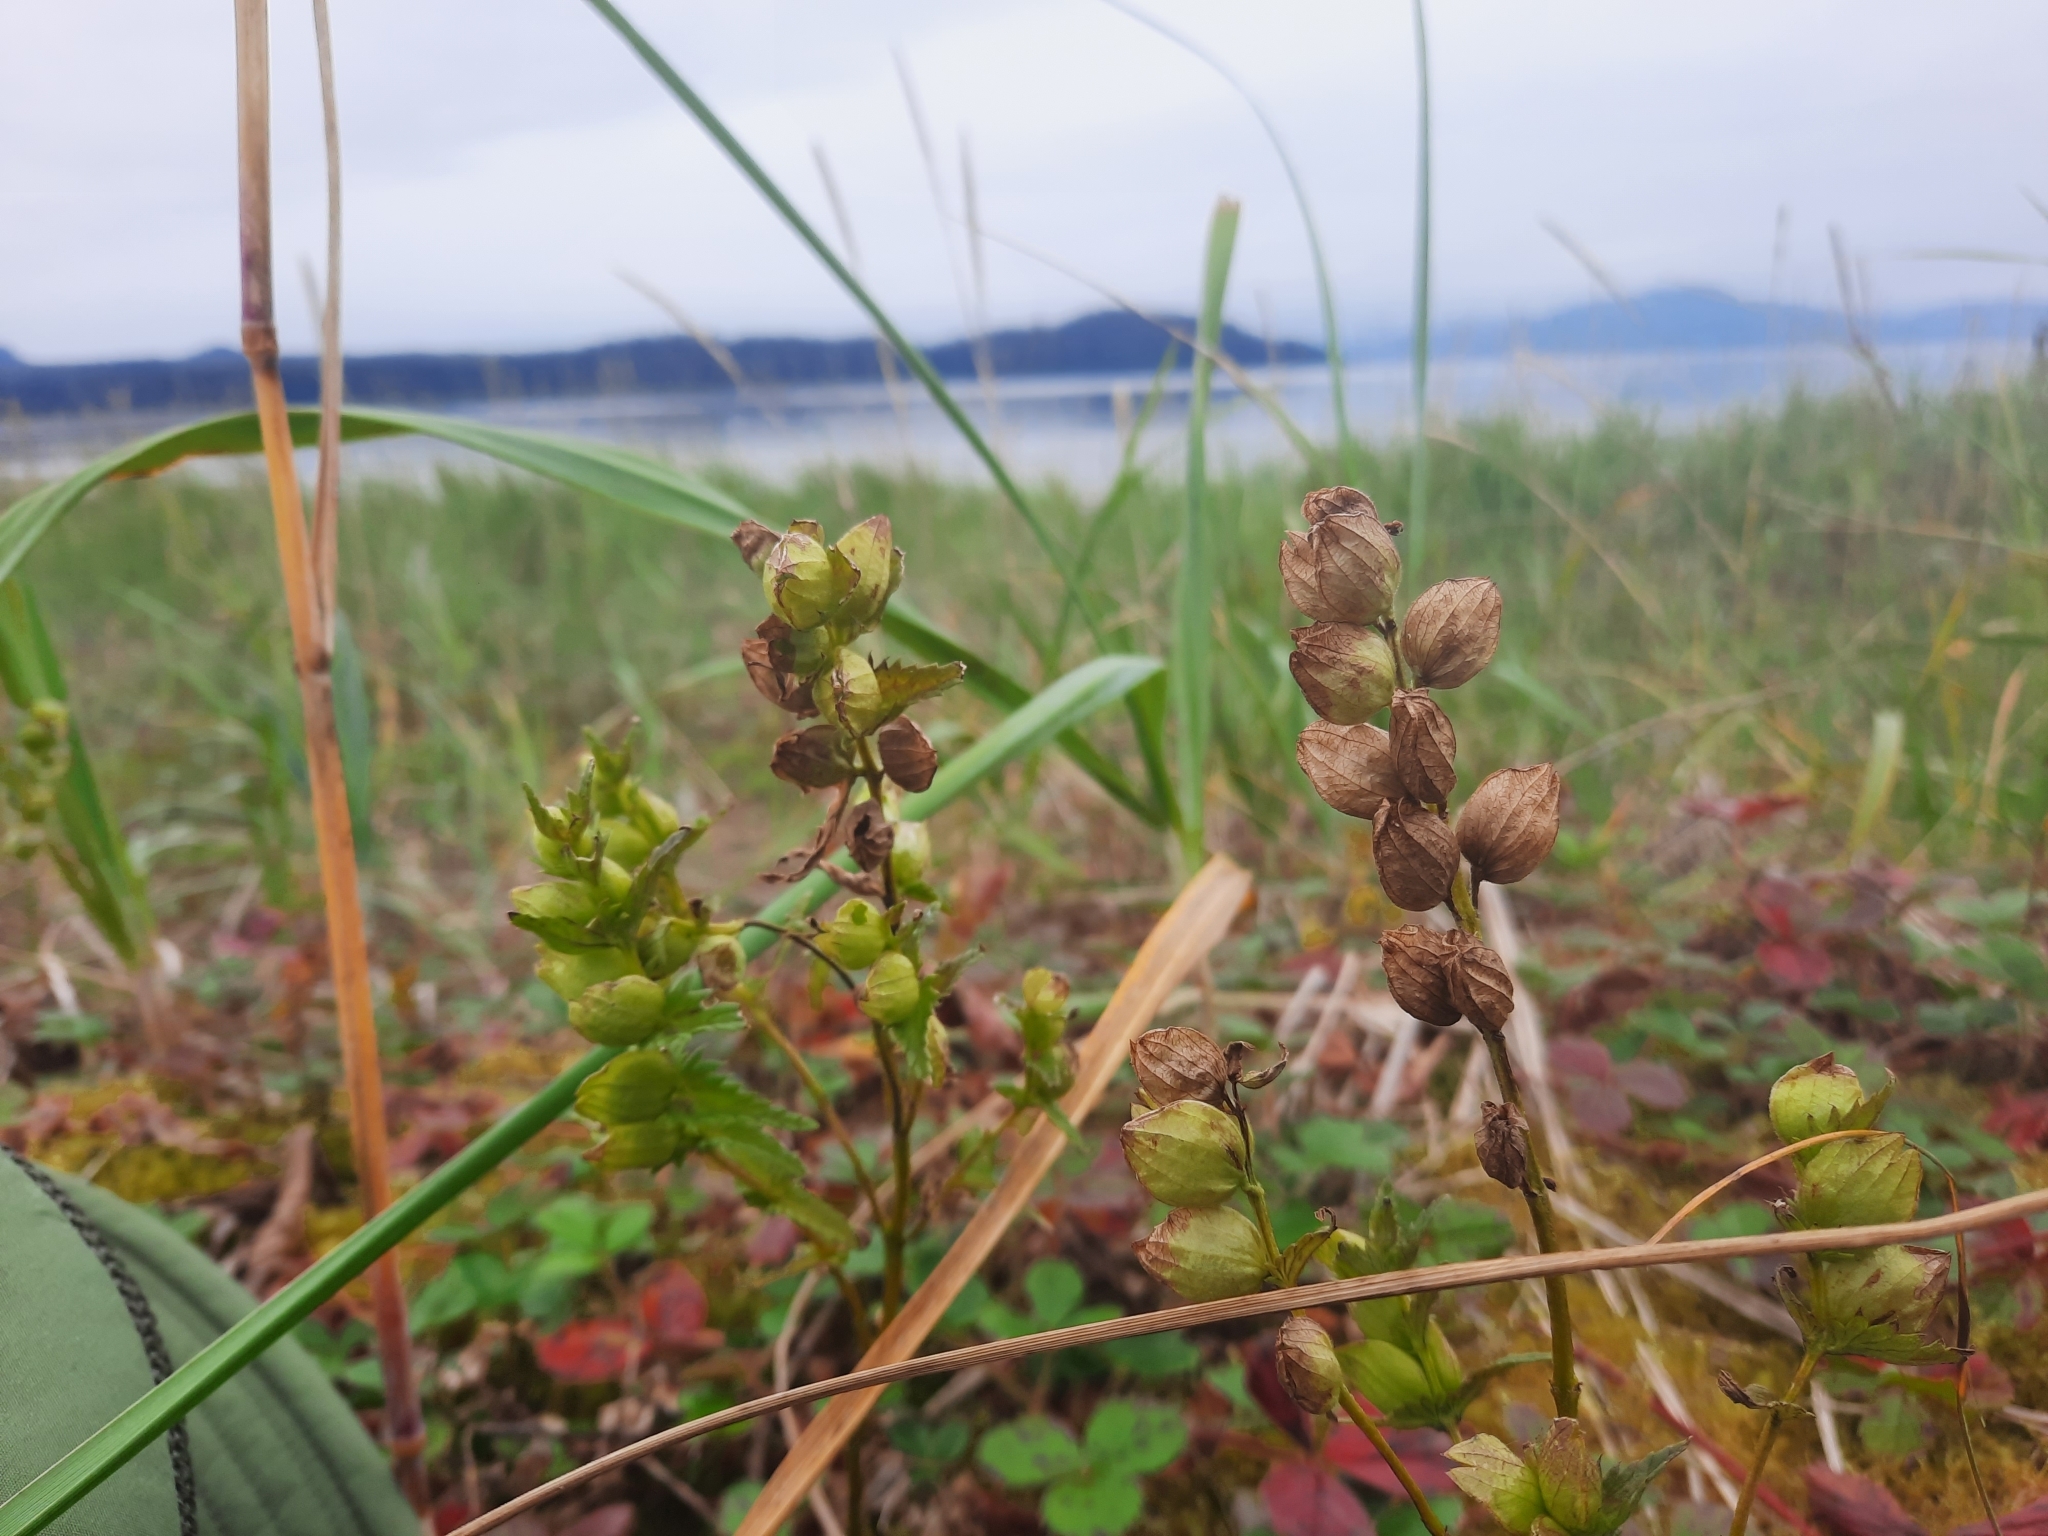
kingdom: Plantae
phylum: Tracheophyta
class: Magnoliopsida
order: Lamiales
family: Orobanchaceae
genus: Rhinanthus
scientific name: Rhinanthus minor
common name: Yellow-rattle
